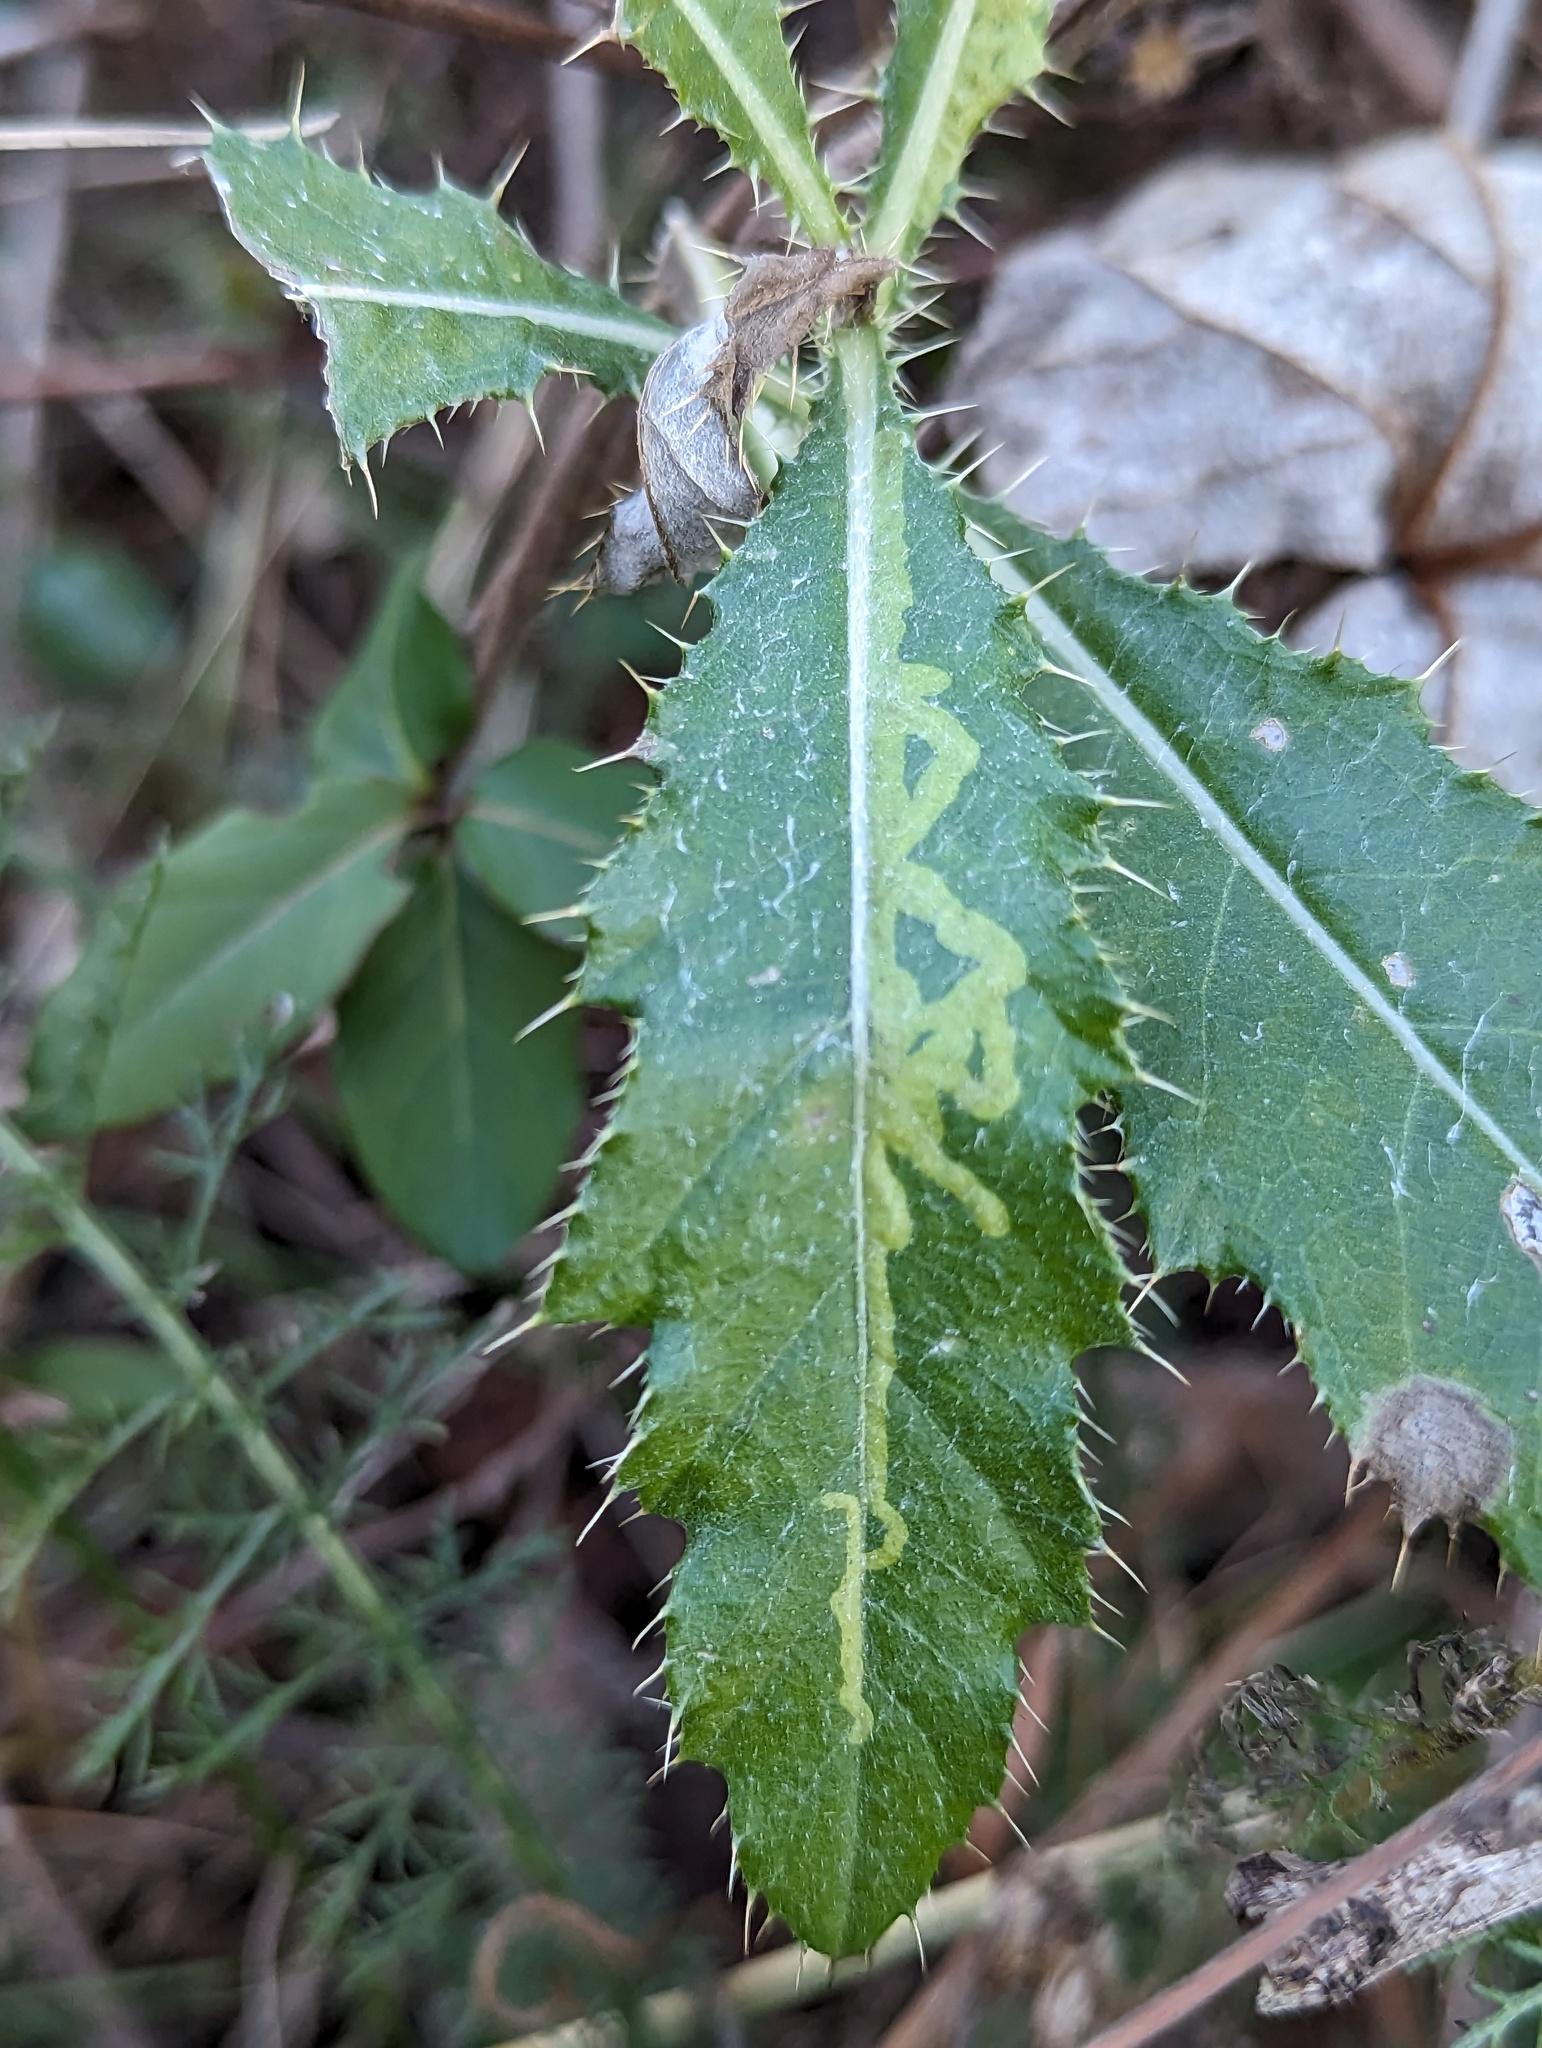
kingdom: Animalia
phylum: Arthropoda
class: Insecta
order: Diptera
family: Agromyzidae
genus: Phytomyza
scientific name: Phytomyza spinaciae
